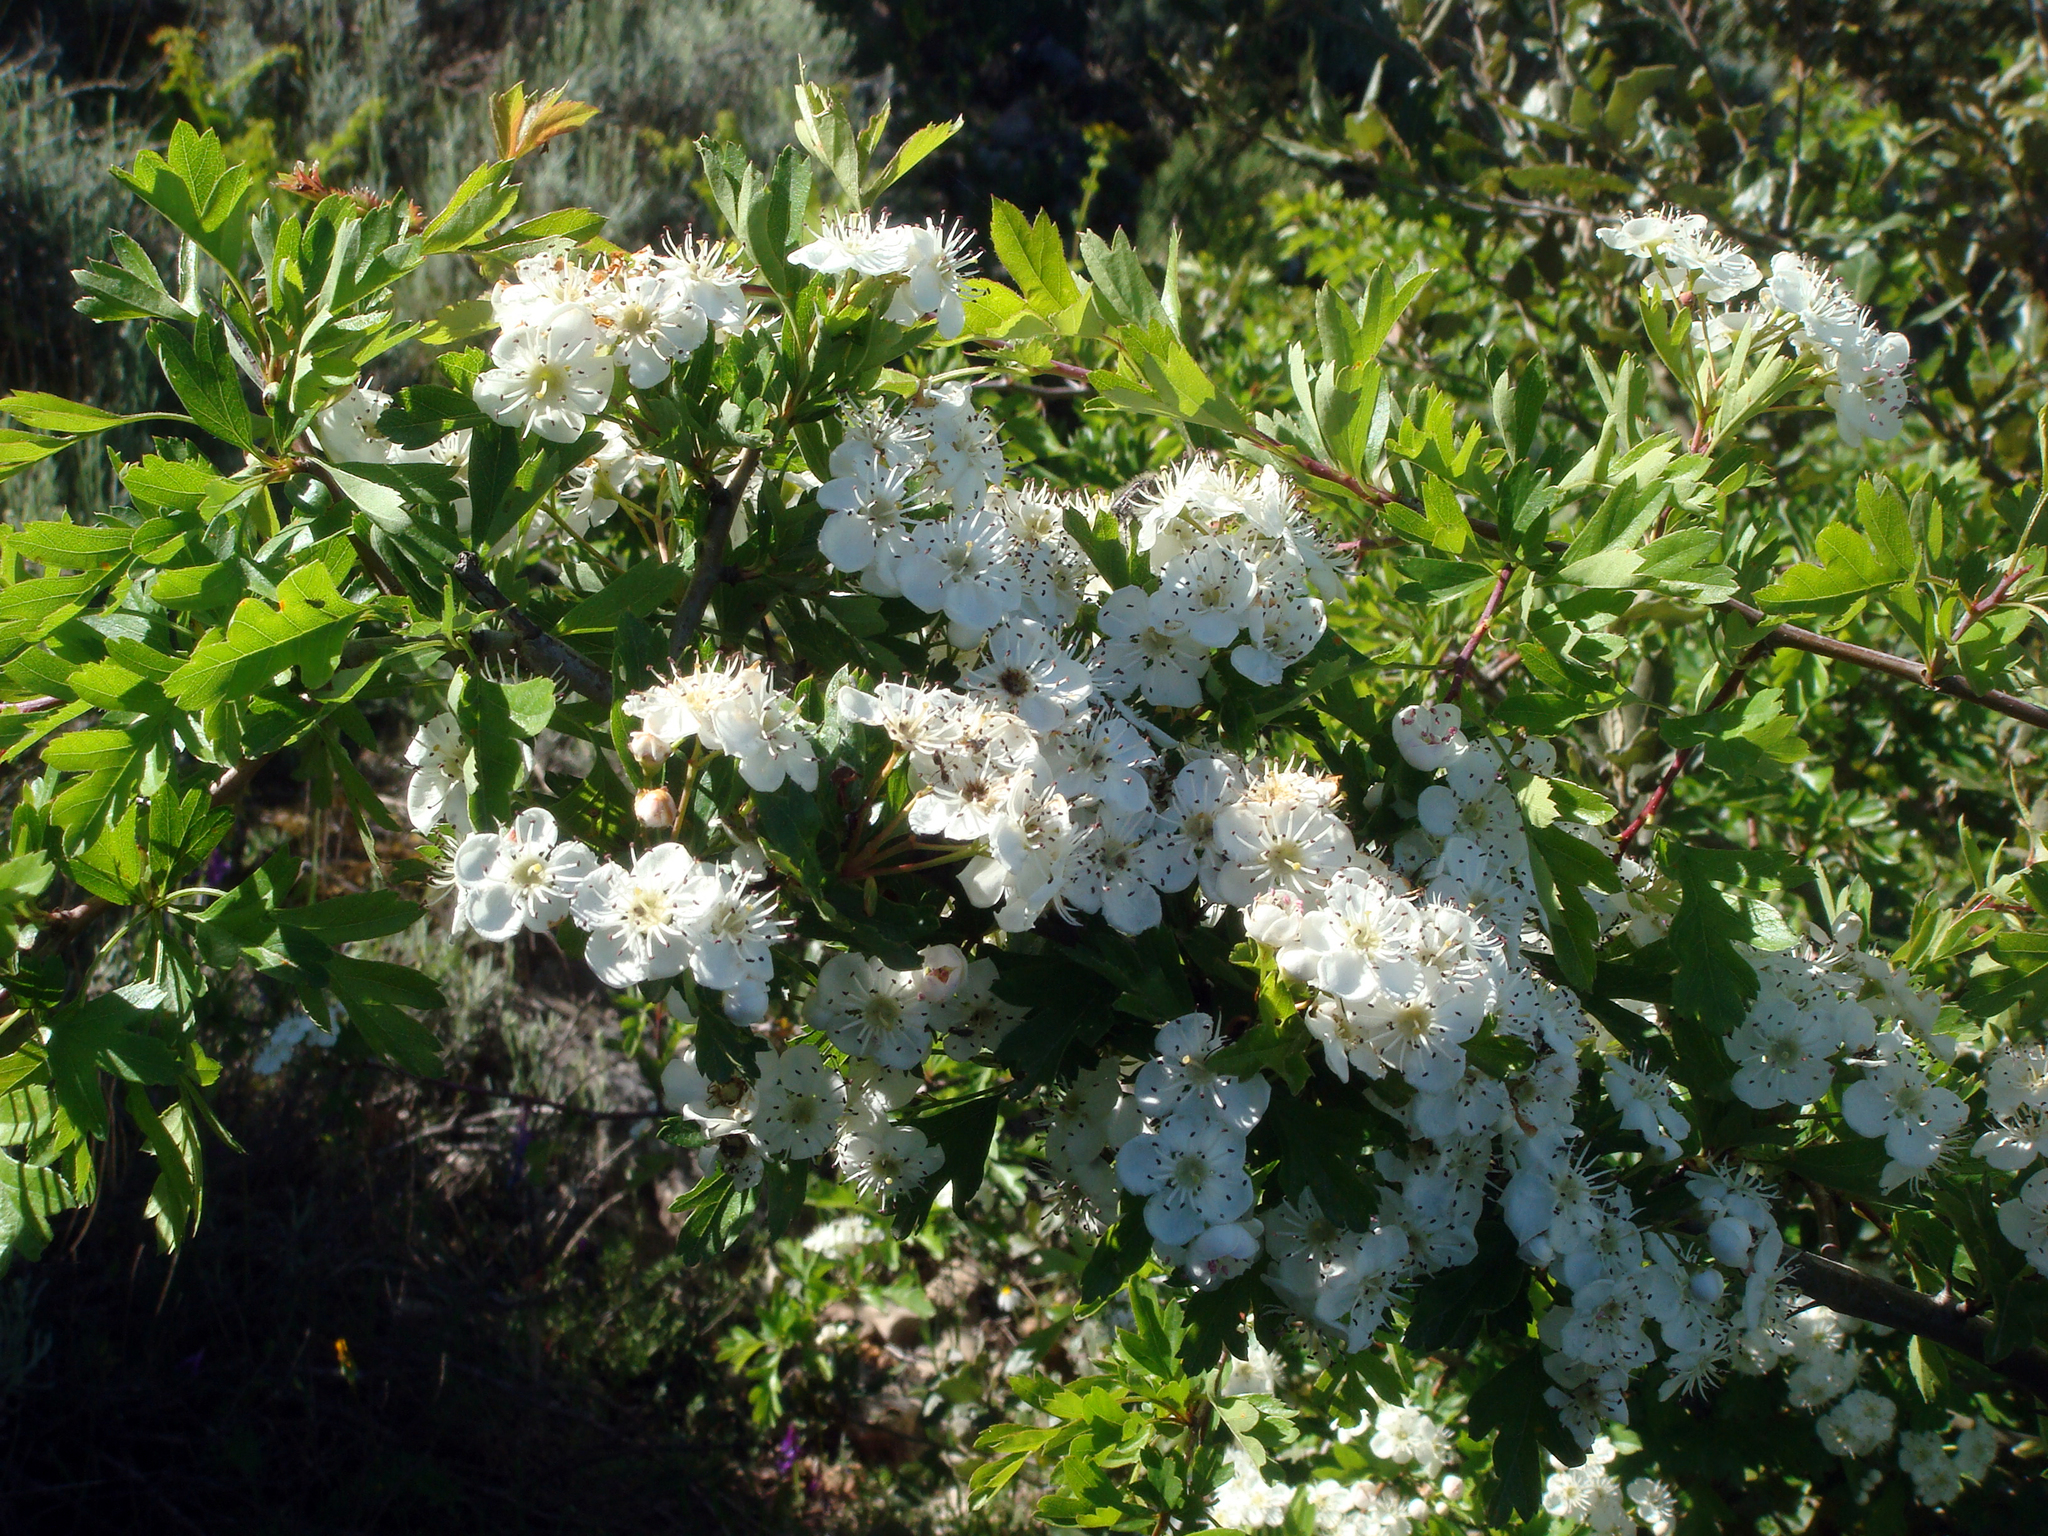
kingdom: Plantae
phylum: Tracheophyta
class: Magnoliopsida
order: Rosales
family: Rosaceae
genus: Crataegus
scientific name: Crataegus monogyna
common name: Hawthorn
